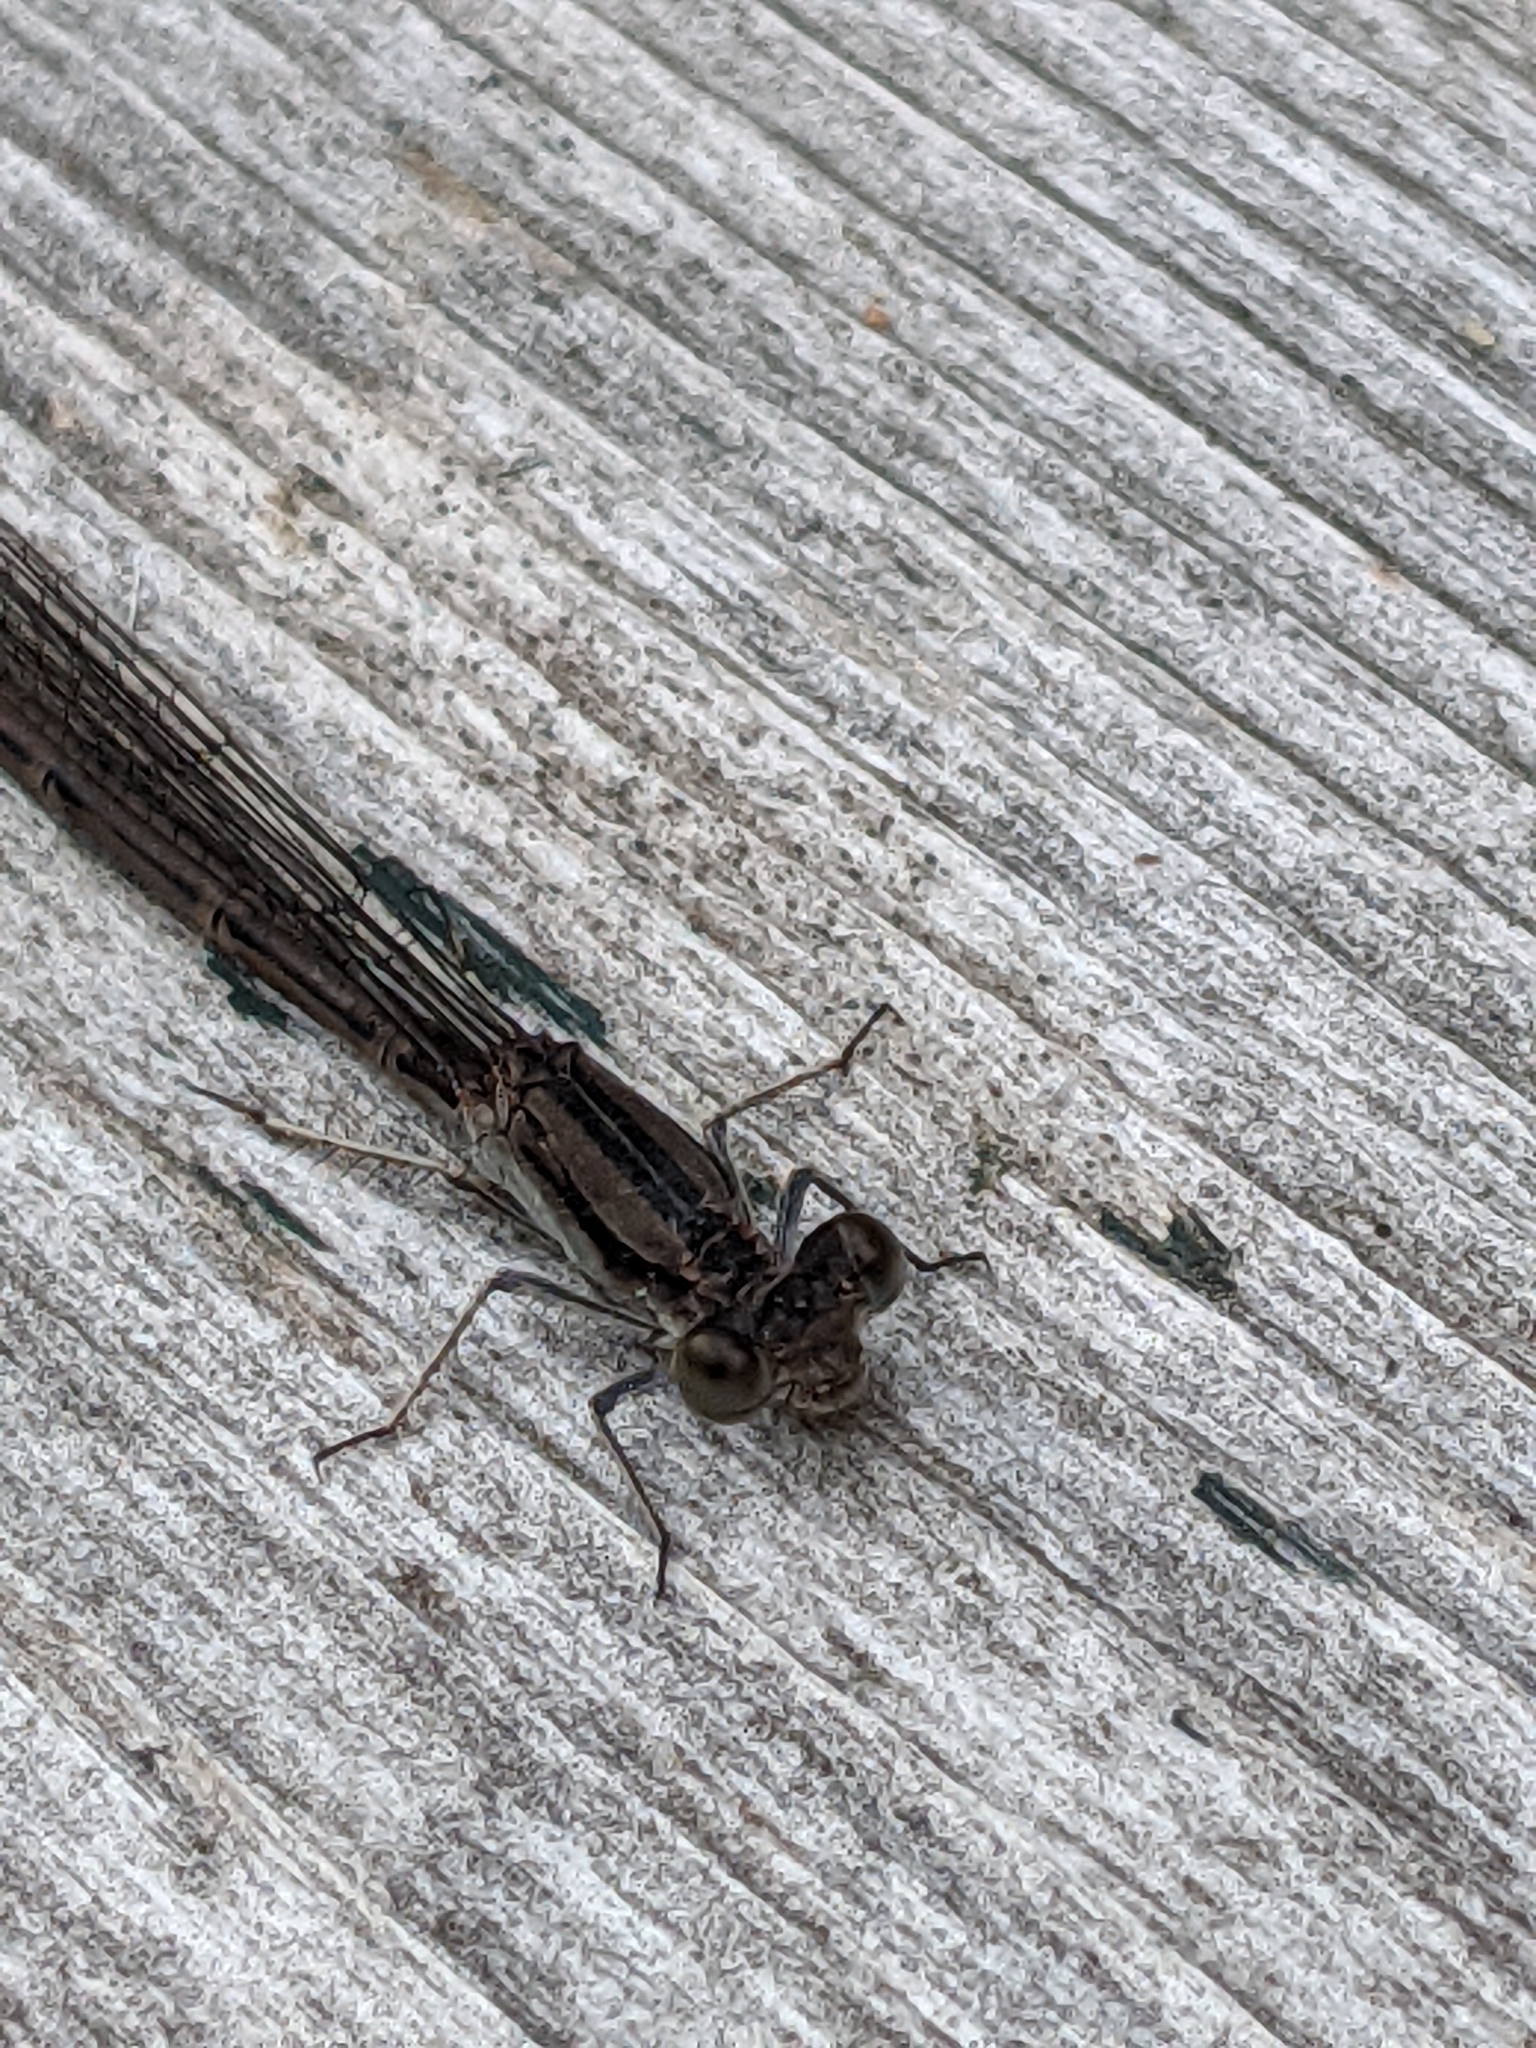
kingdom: Animalia
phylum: Arthropoda
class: Insecta
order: Odonata
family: Coenagrionidae
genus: Argia
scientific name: Argia fumipennis
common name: Variable dancer
